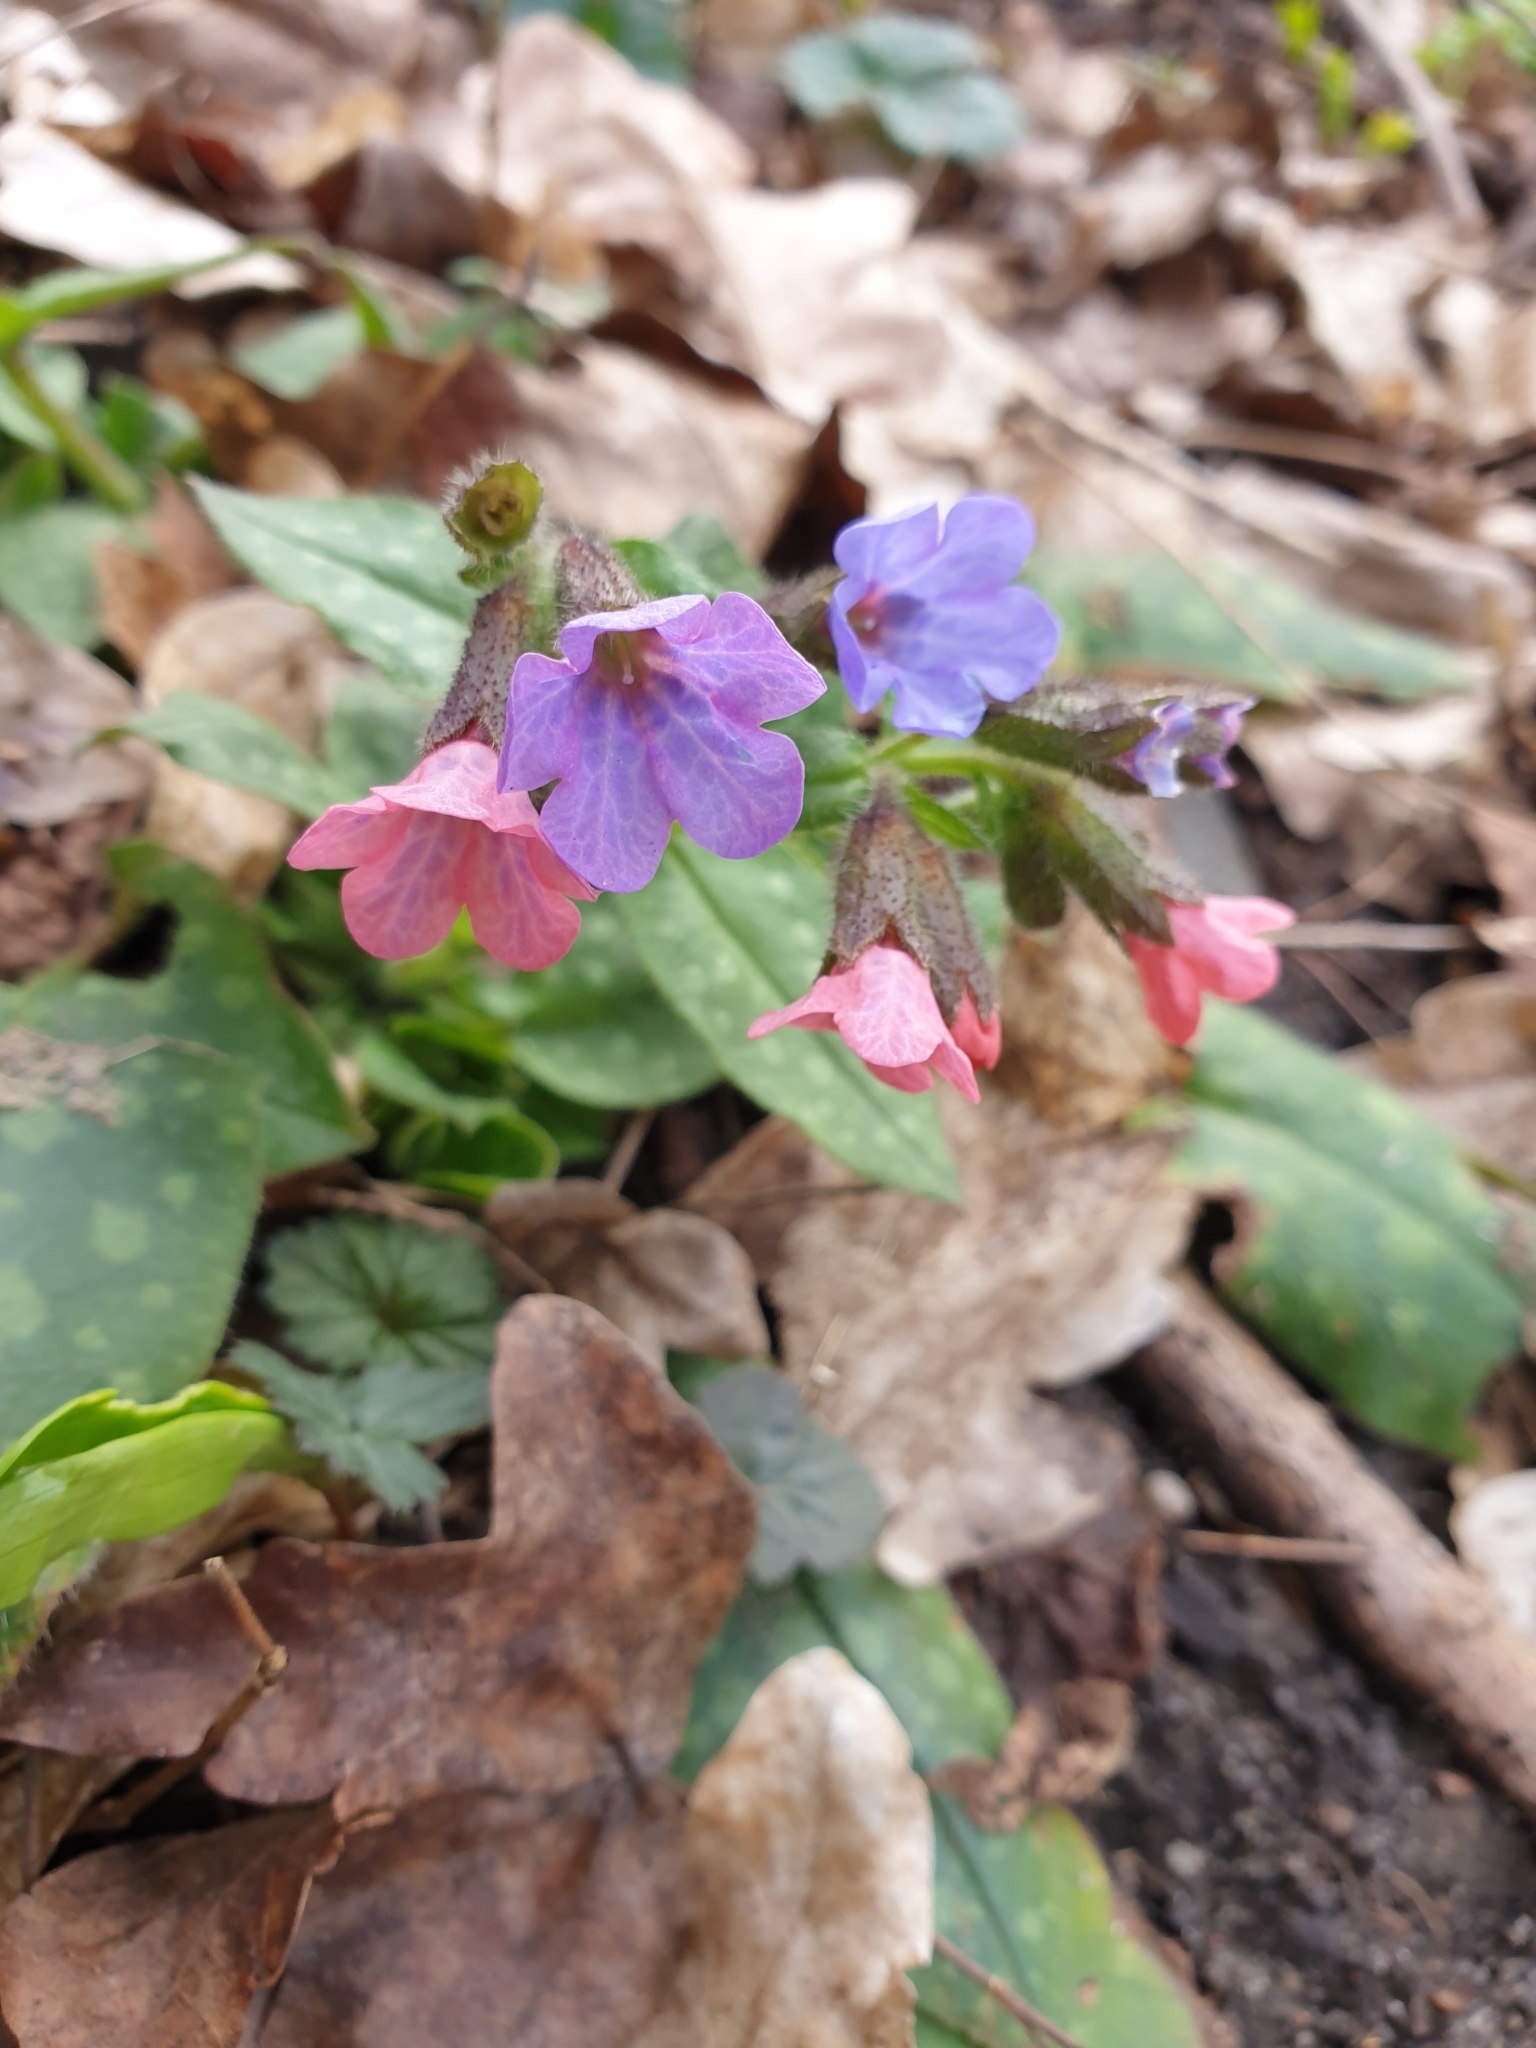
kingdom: Plantae
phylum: Tracheophyta
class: Magnoliopsida
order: Boraginales
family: Boraginaceae
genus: Pulmonaria
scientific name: Pulmonaria officinalis
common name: Lungwort
